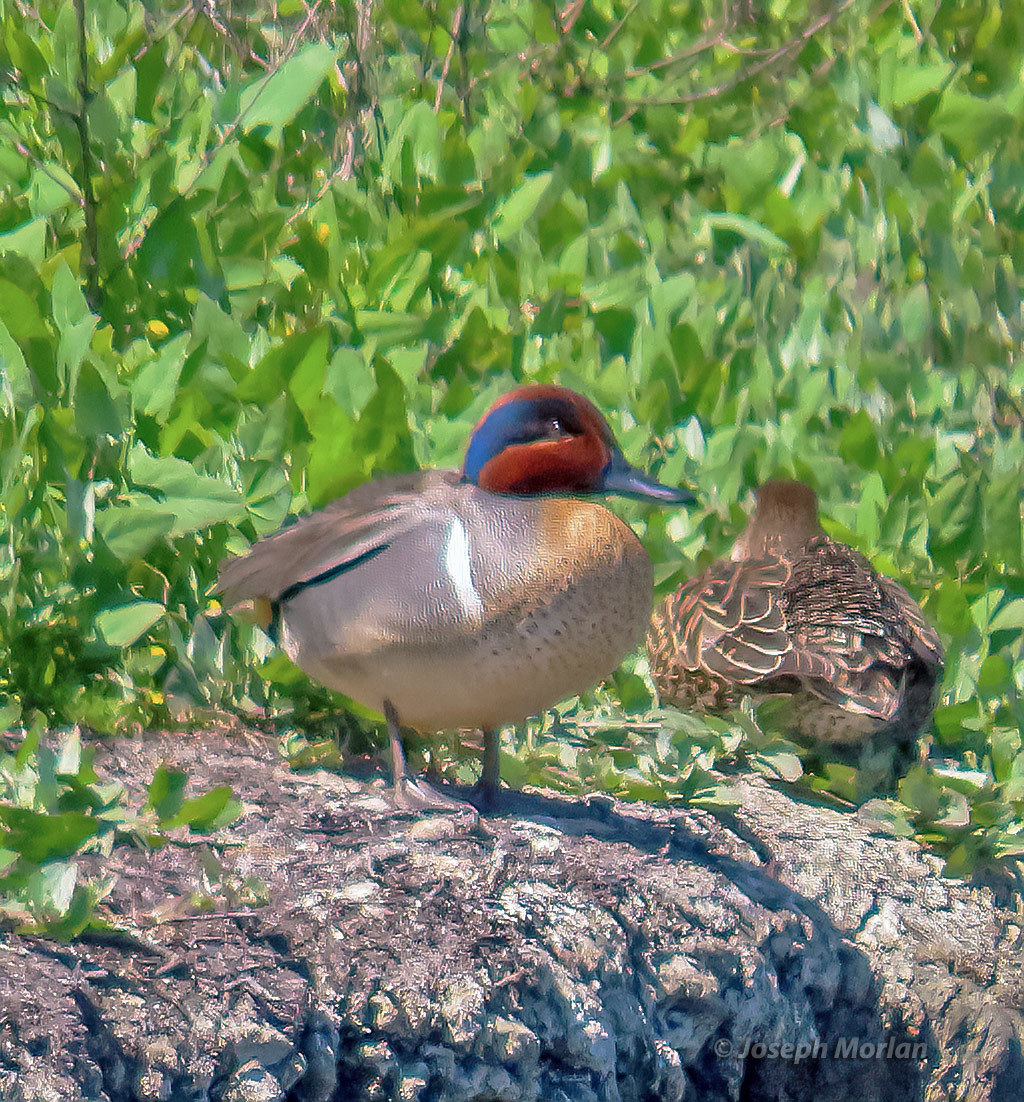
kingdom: Animalia
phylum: Chordata
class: Aves
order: Anseriformes
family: Anatidae
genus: Anas
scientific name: Anas crecca
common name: Eurasian teal
